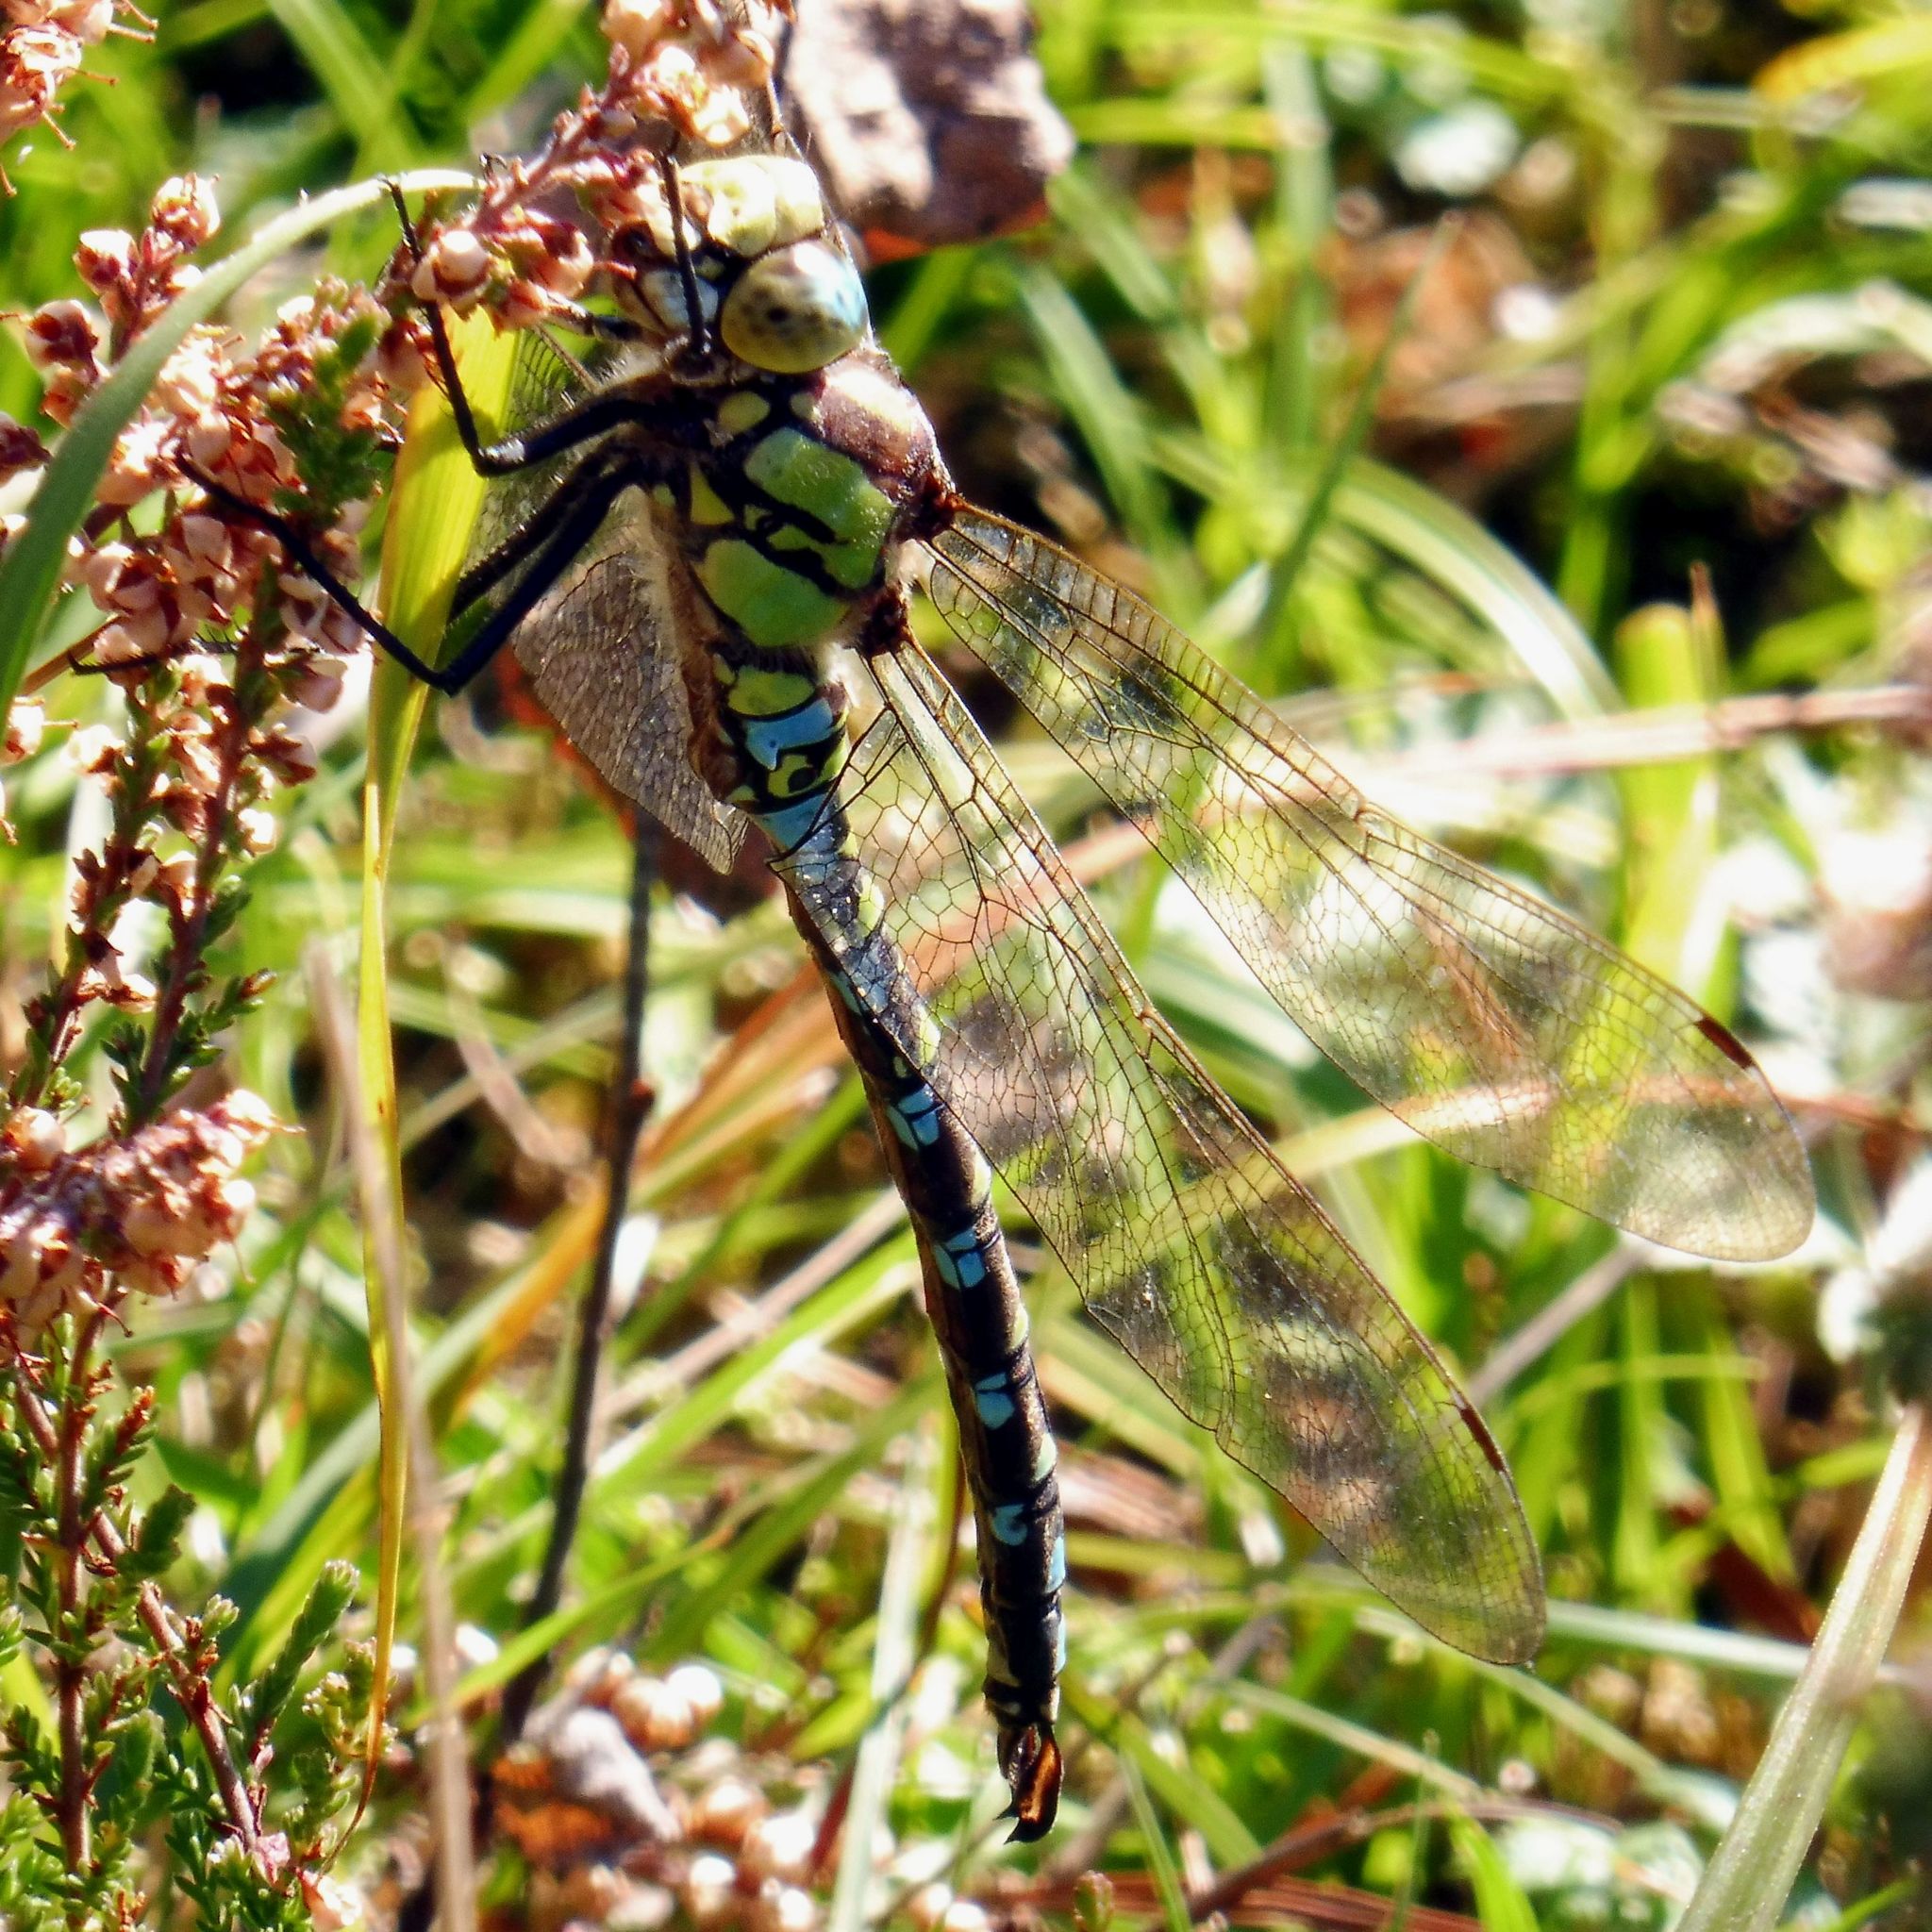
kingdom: Animalia
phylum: Arthropoda
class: Insecta
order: Odonata
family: Aeshnidae
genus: Aeshna
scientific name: Aeshna cyanea
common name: Southern hawker
